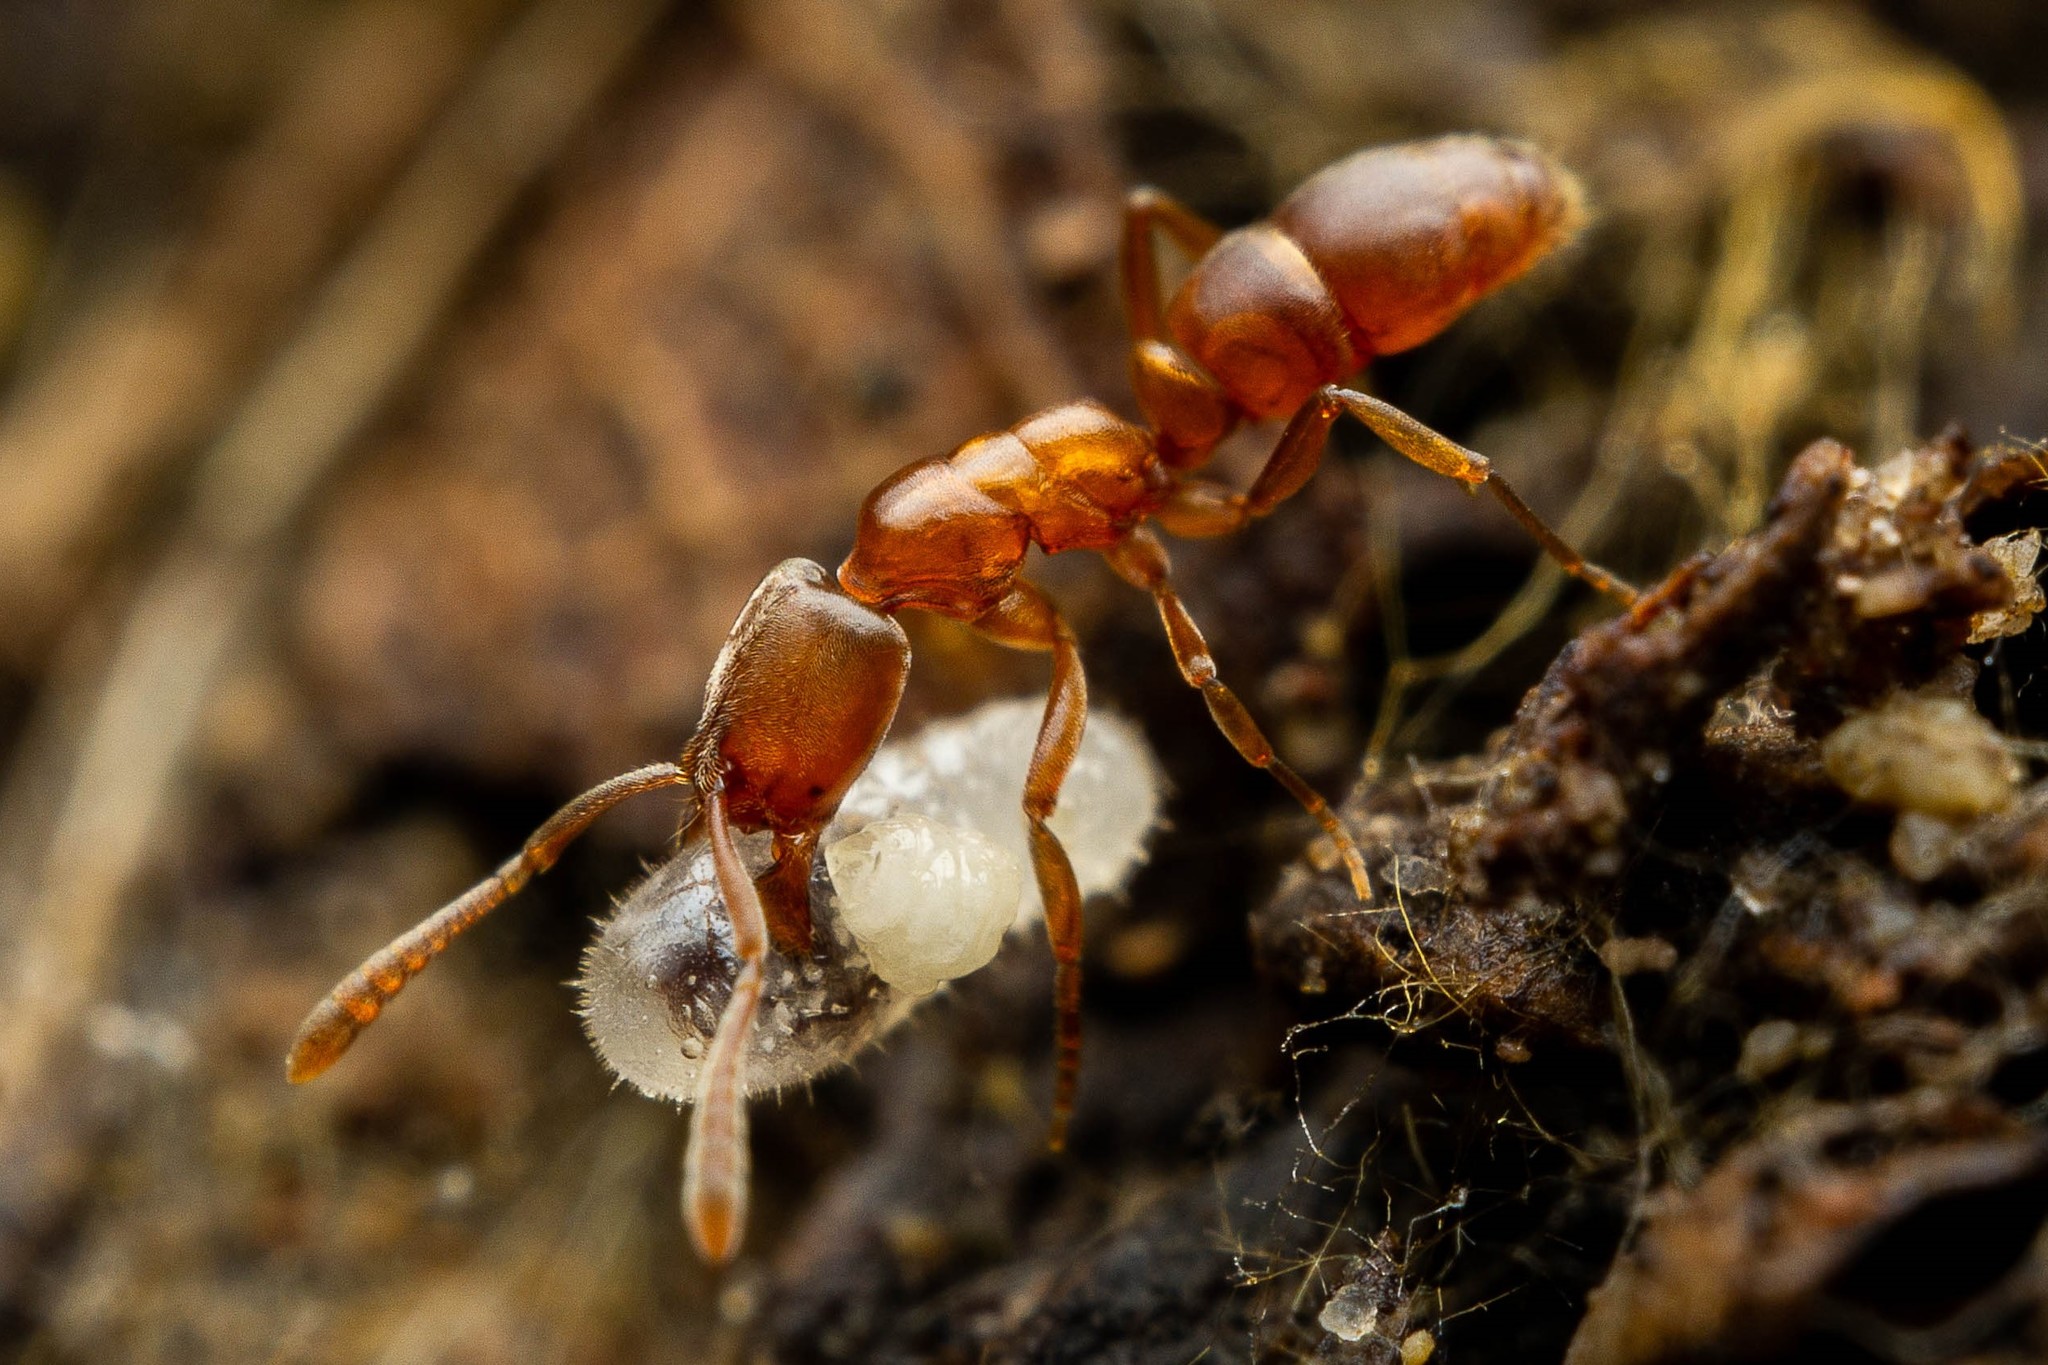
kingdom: Animalia
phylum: Arthropoda
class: Insecta
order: Hymenoptera
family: Formicidae
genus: Hypoponera
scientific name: Hypoponera opacior
